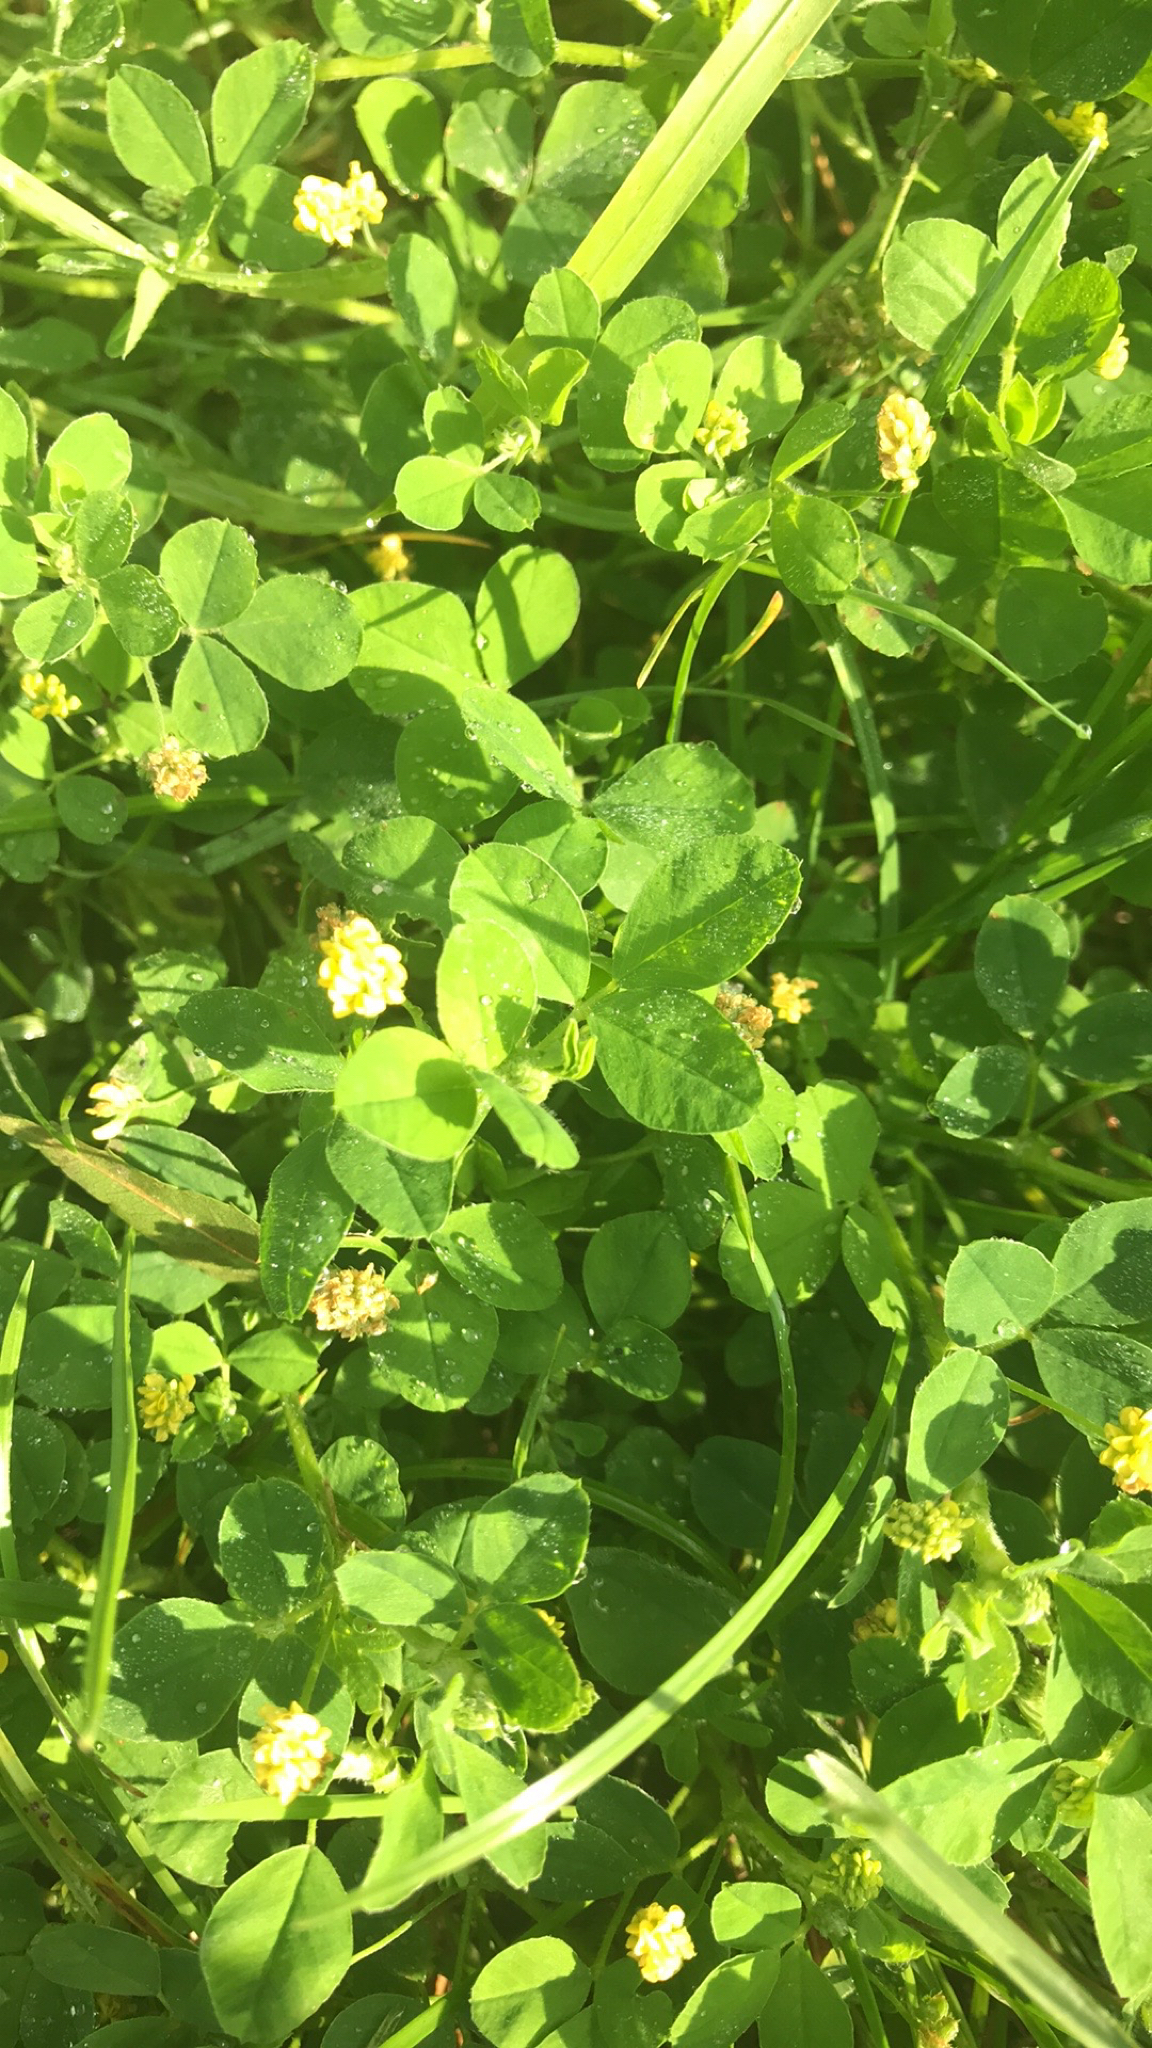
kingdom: Plantae
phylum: Tracheophyta
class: Magnoliopsida
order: Fabales
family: Fabaceae
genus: Medicago
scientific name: Medicago lupulina
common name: Black medick
